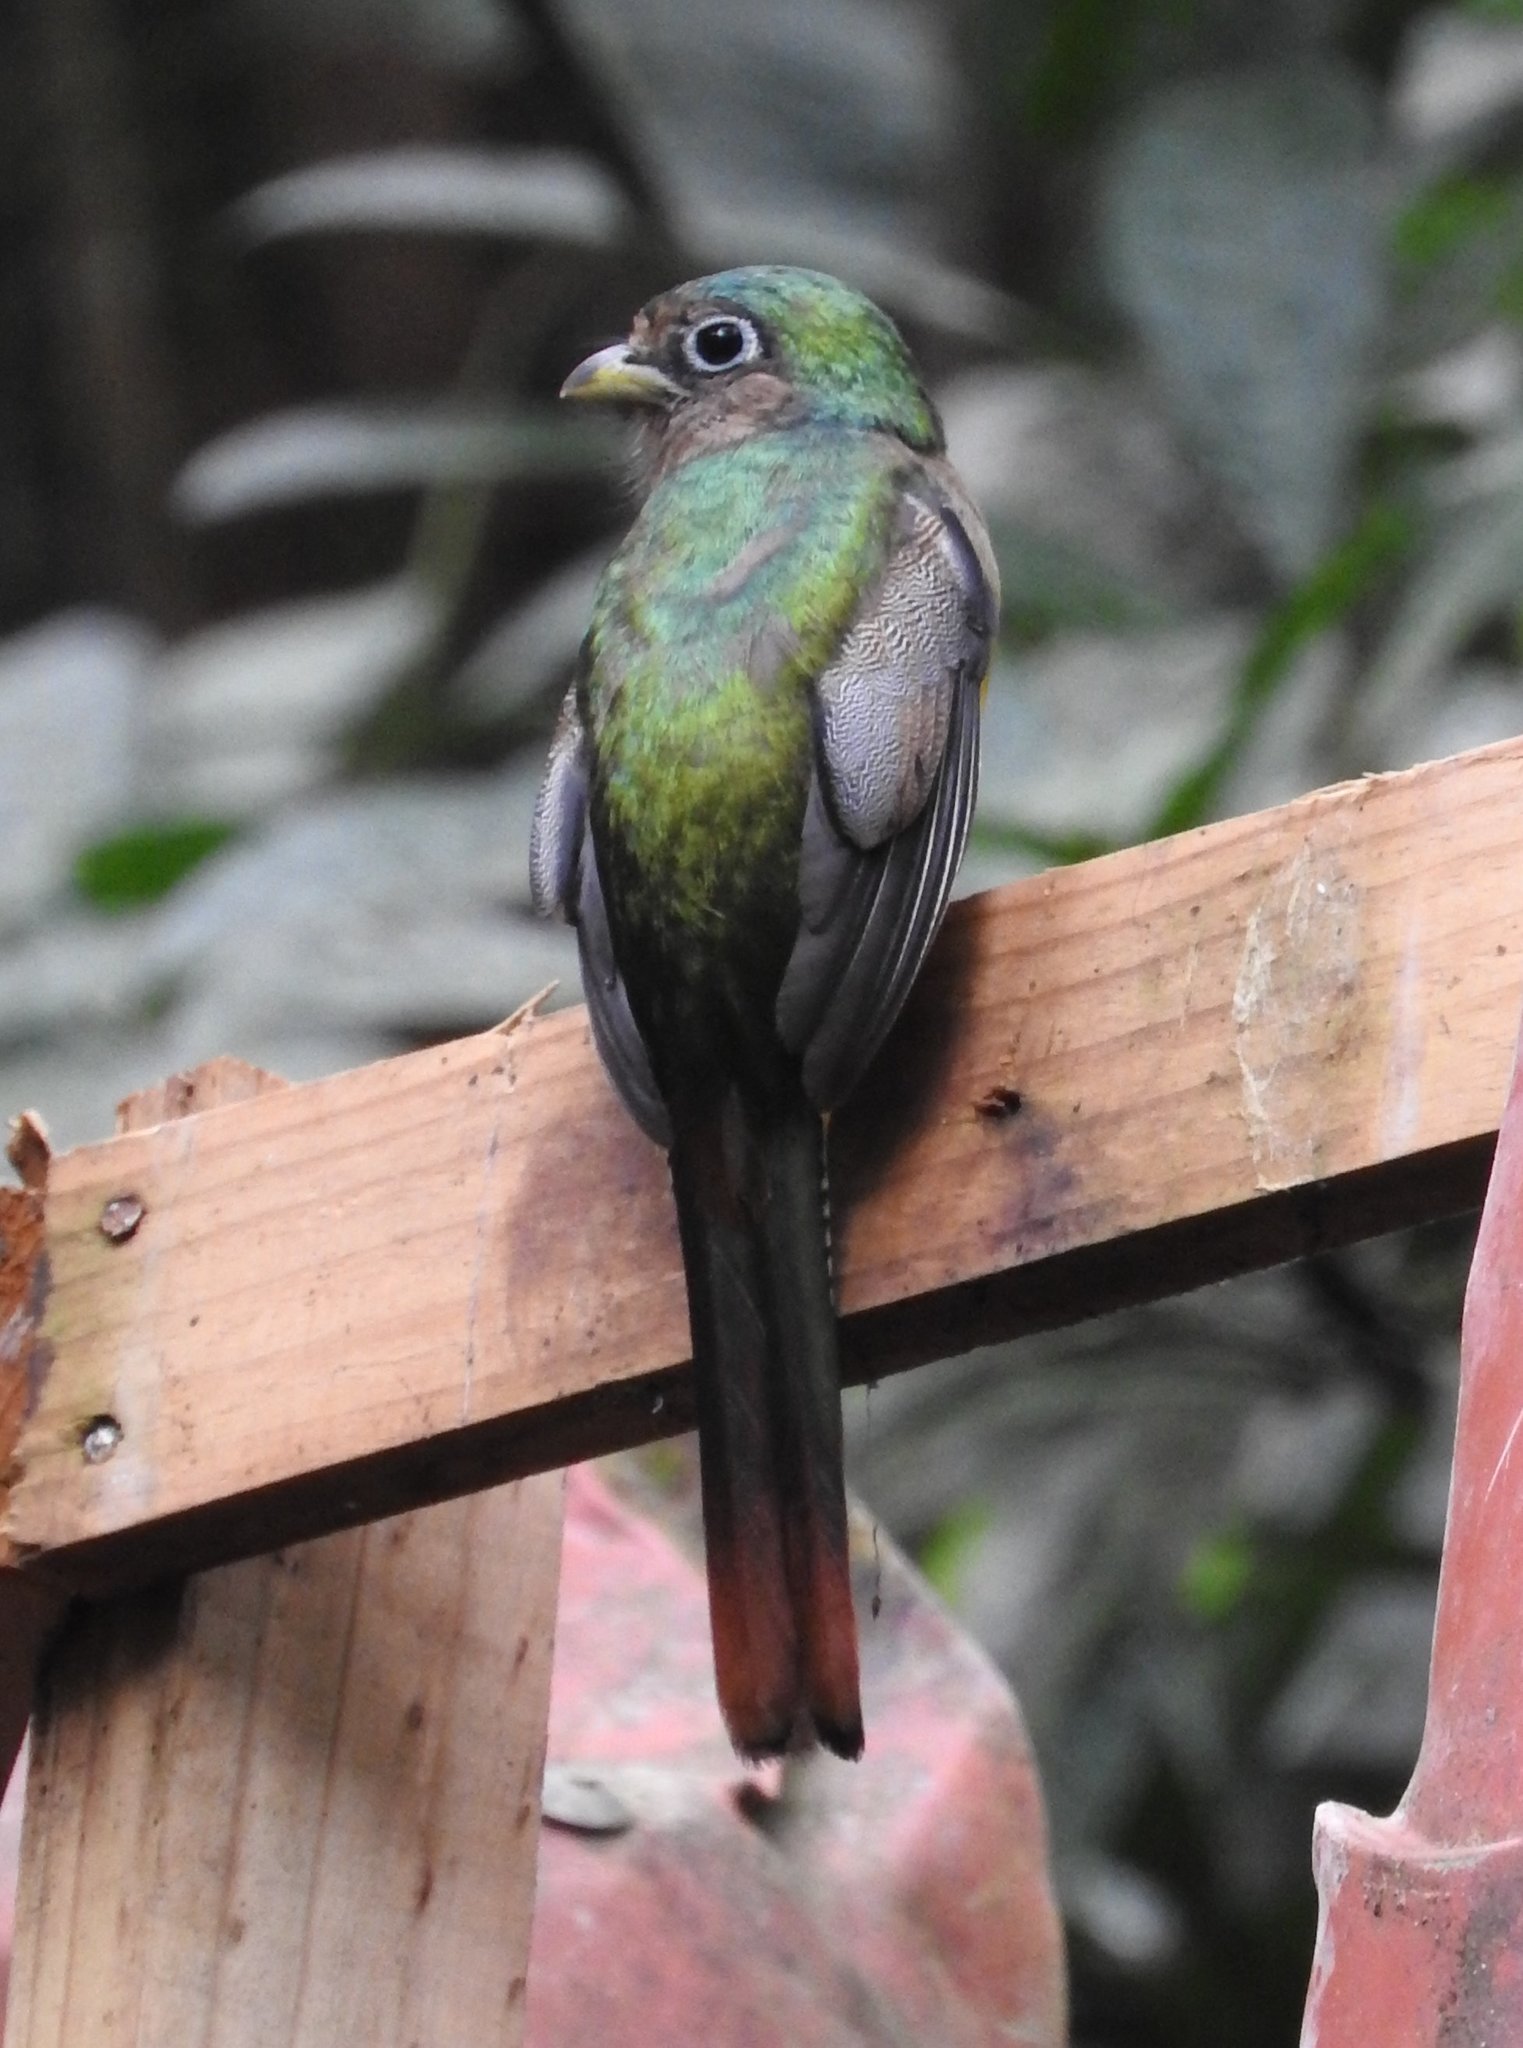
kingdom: Animalia
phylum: Chordata
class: Aves
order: Trogoniformes
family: Trogonidae
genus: Trogon
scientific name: Trogon rufus
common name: Black-throated trogon
